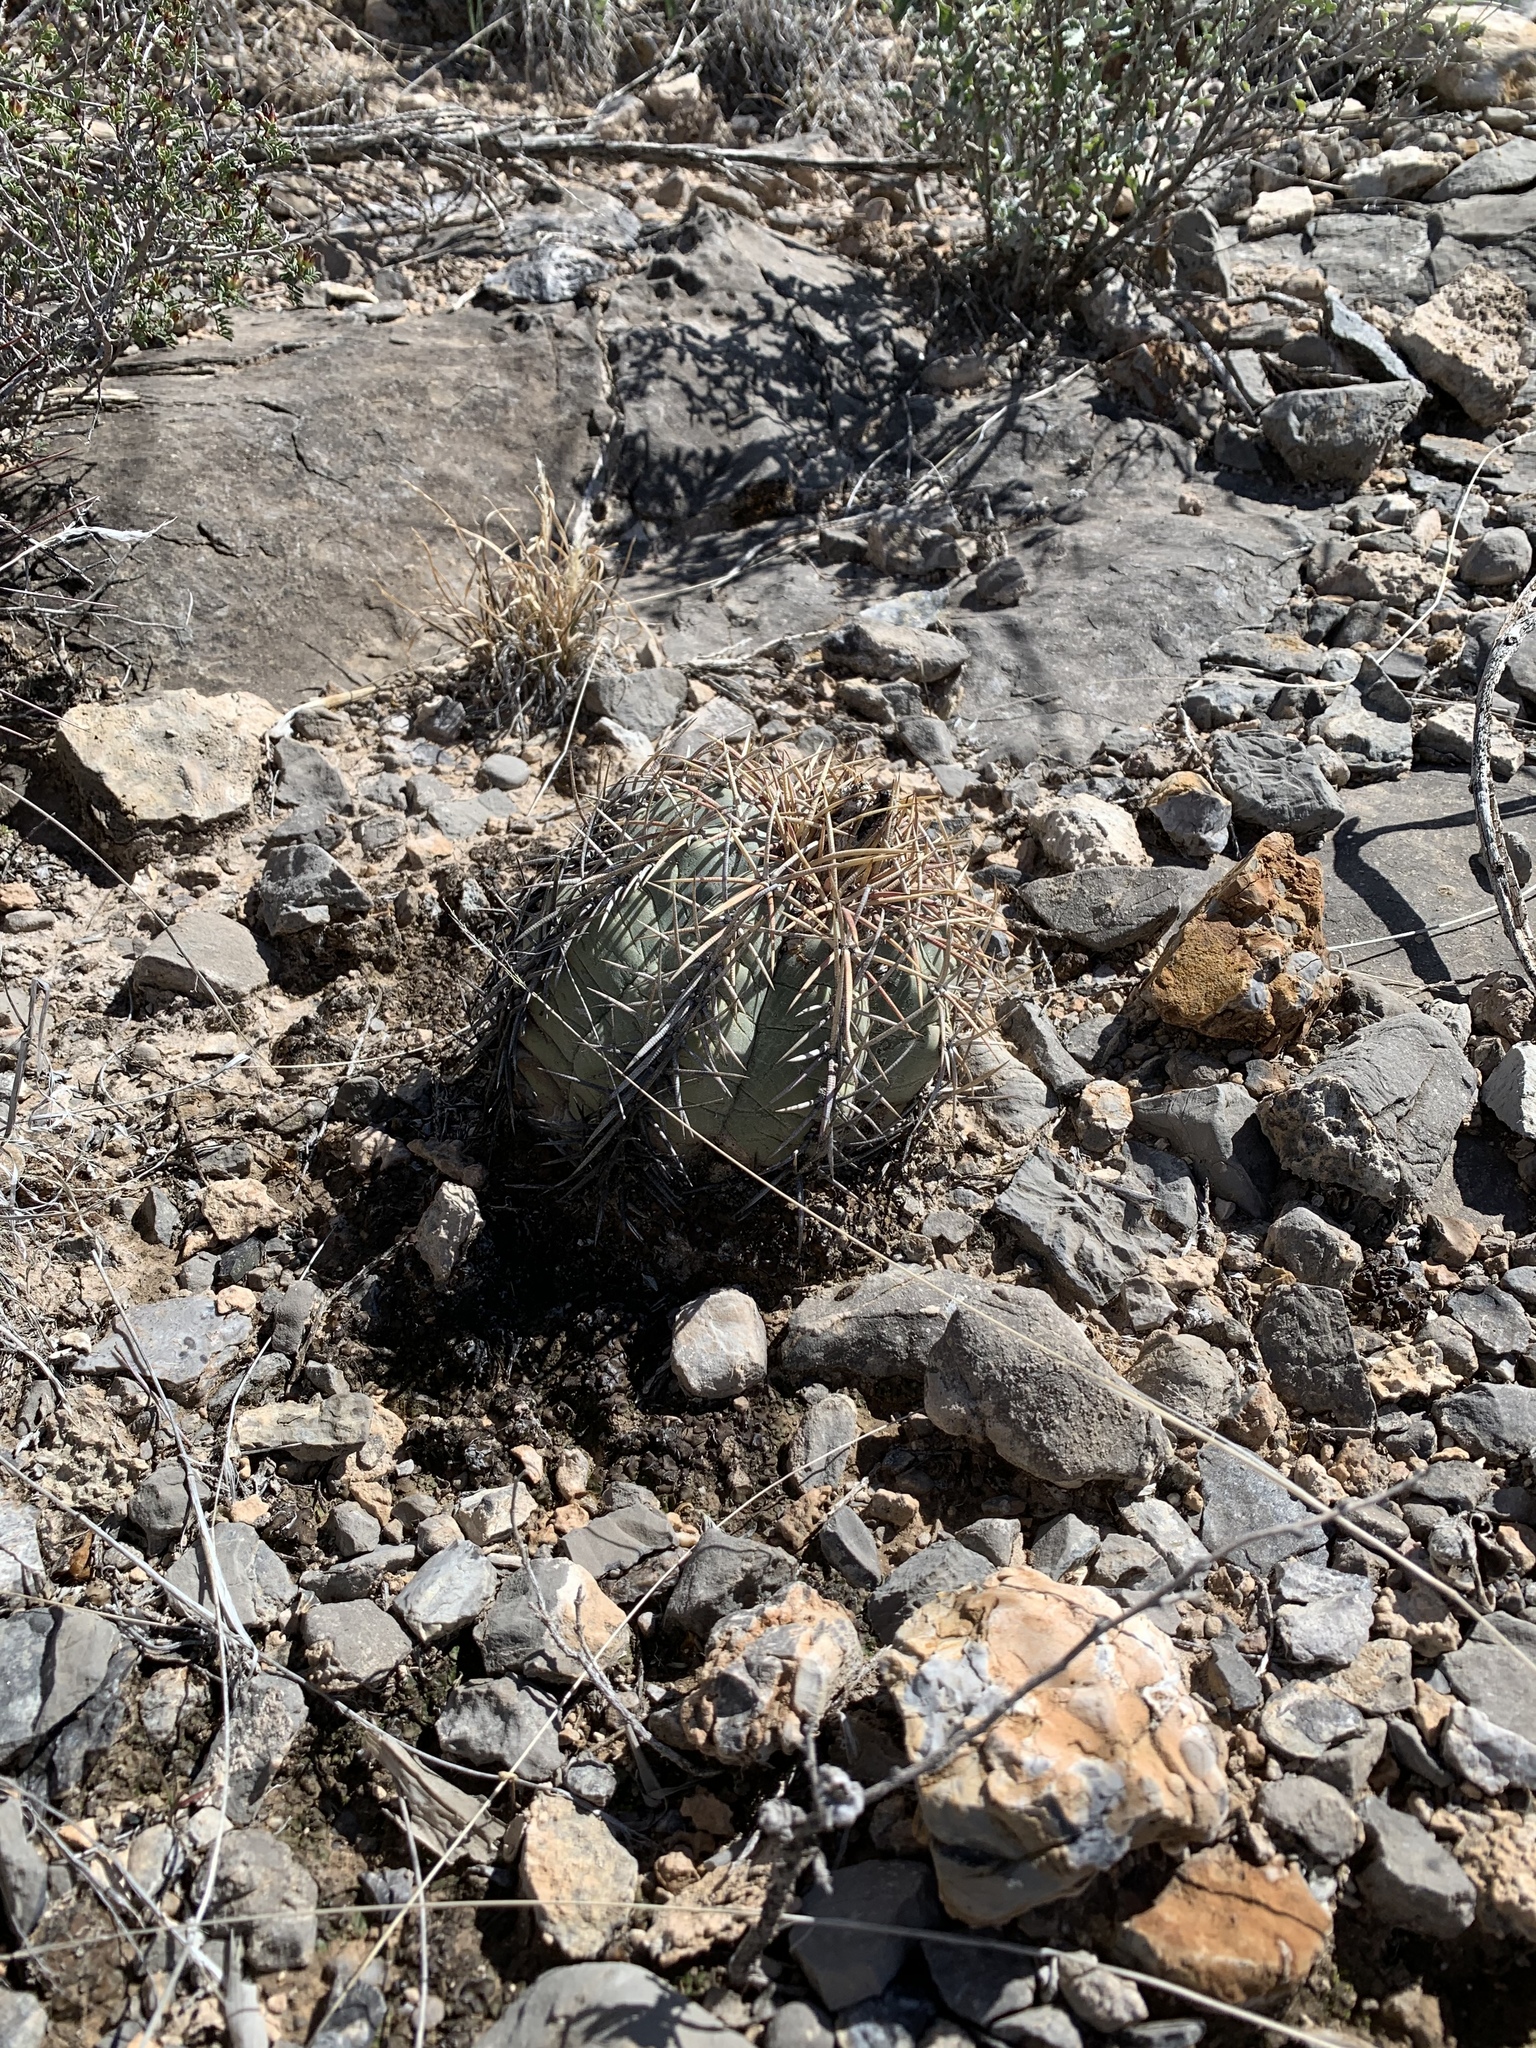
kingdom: Plantae
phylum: Tracheophyta
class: Magnoliopsida
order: Caryophyllales
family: Cactaceae
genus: Echinocactus
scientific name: Echinocactus horizonthalonius
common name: Devilshead
